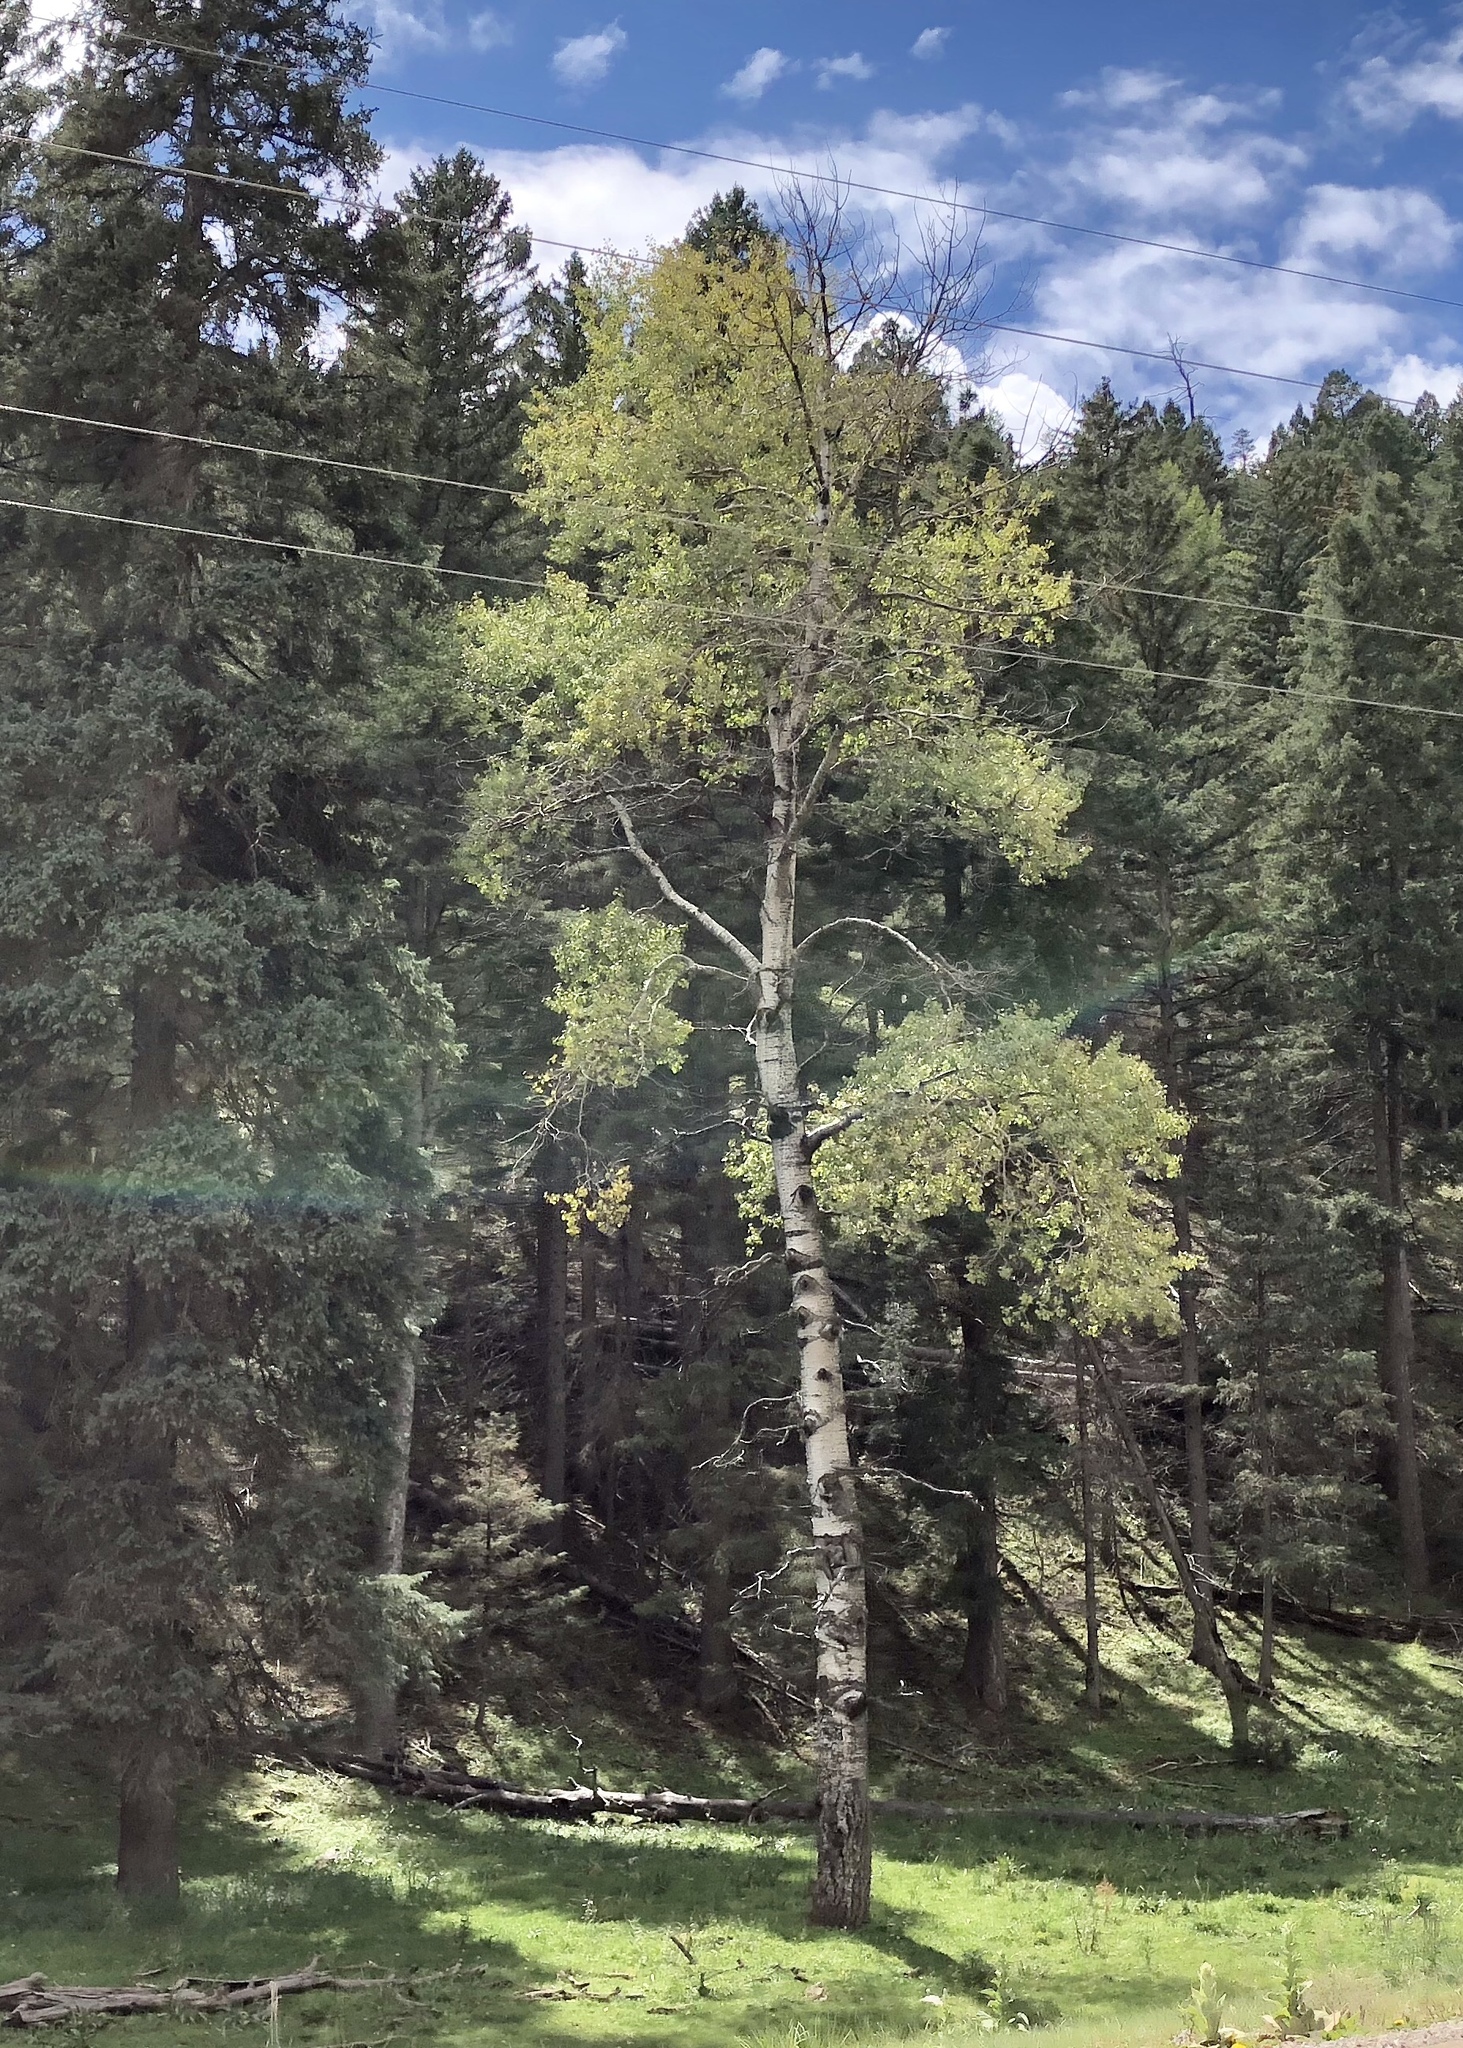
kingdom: Plantae
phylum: Tracheophyta
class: Magnoliopsida
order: Malpighiales
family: Salicaceae
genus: Populus
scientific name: Populus tremuloides
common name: Quaking aspen
